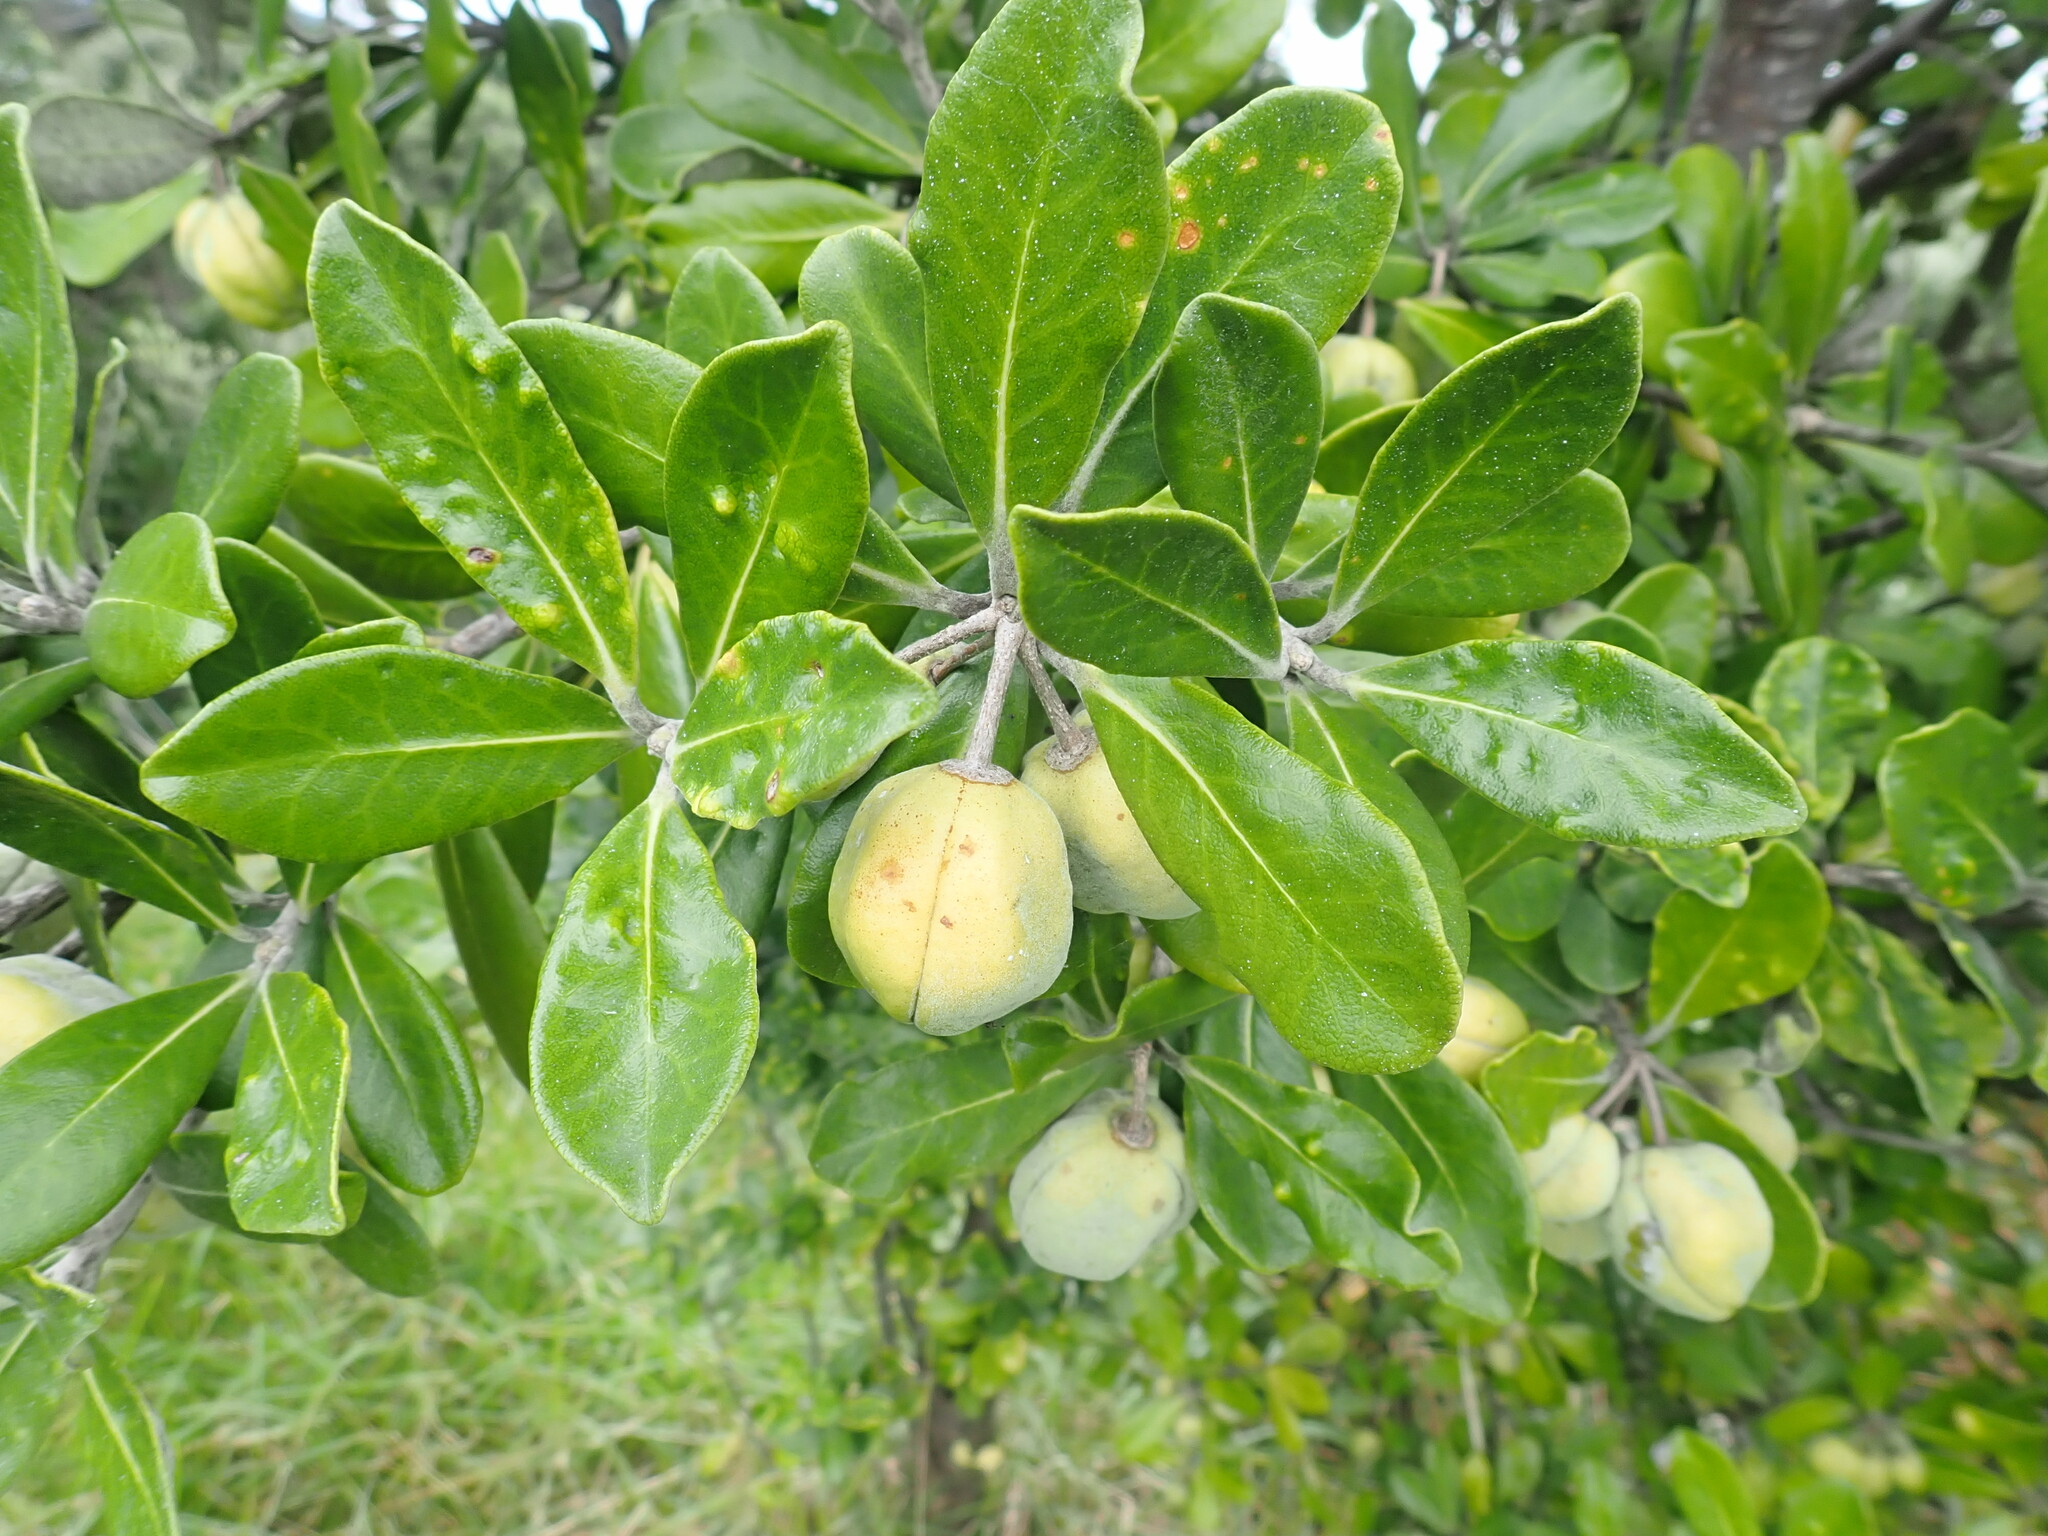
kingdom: Plantae
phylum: Tracheophyta
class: Magnoliopsida
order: Apiales
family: Pittosporaceae
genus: Pittosporum
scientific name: Pittosporum crassifolium
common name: Karo
